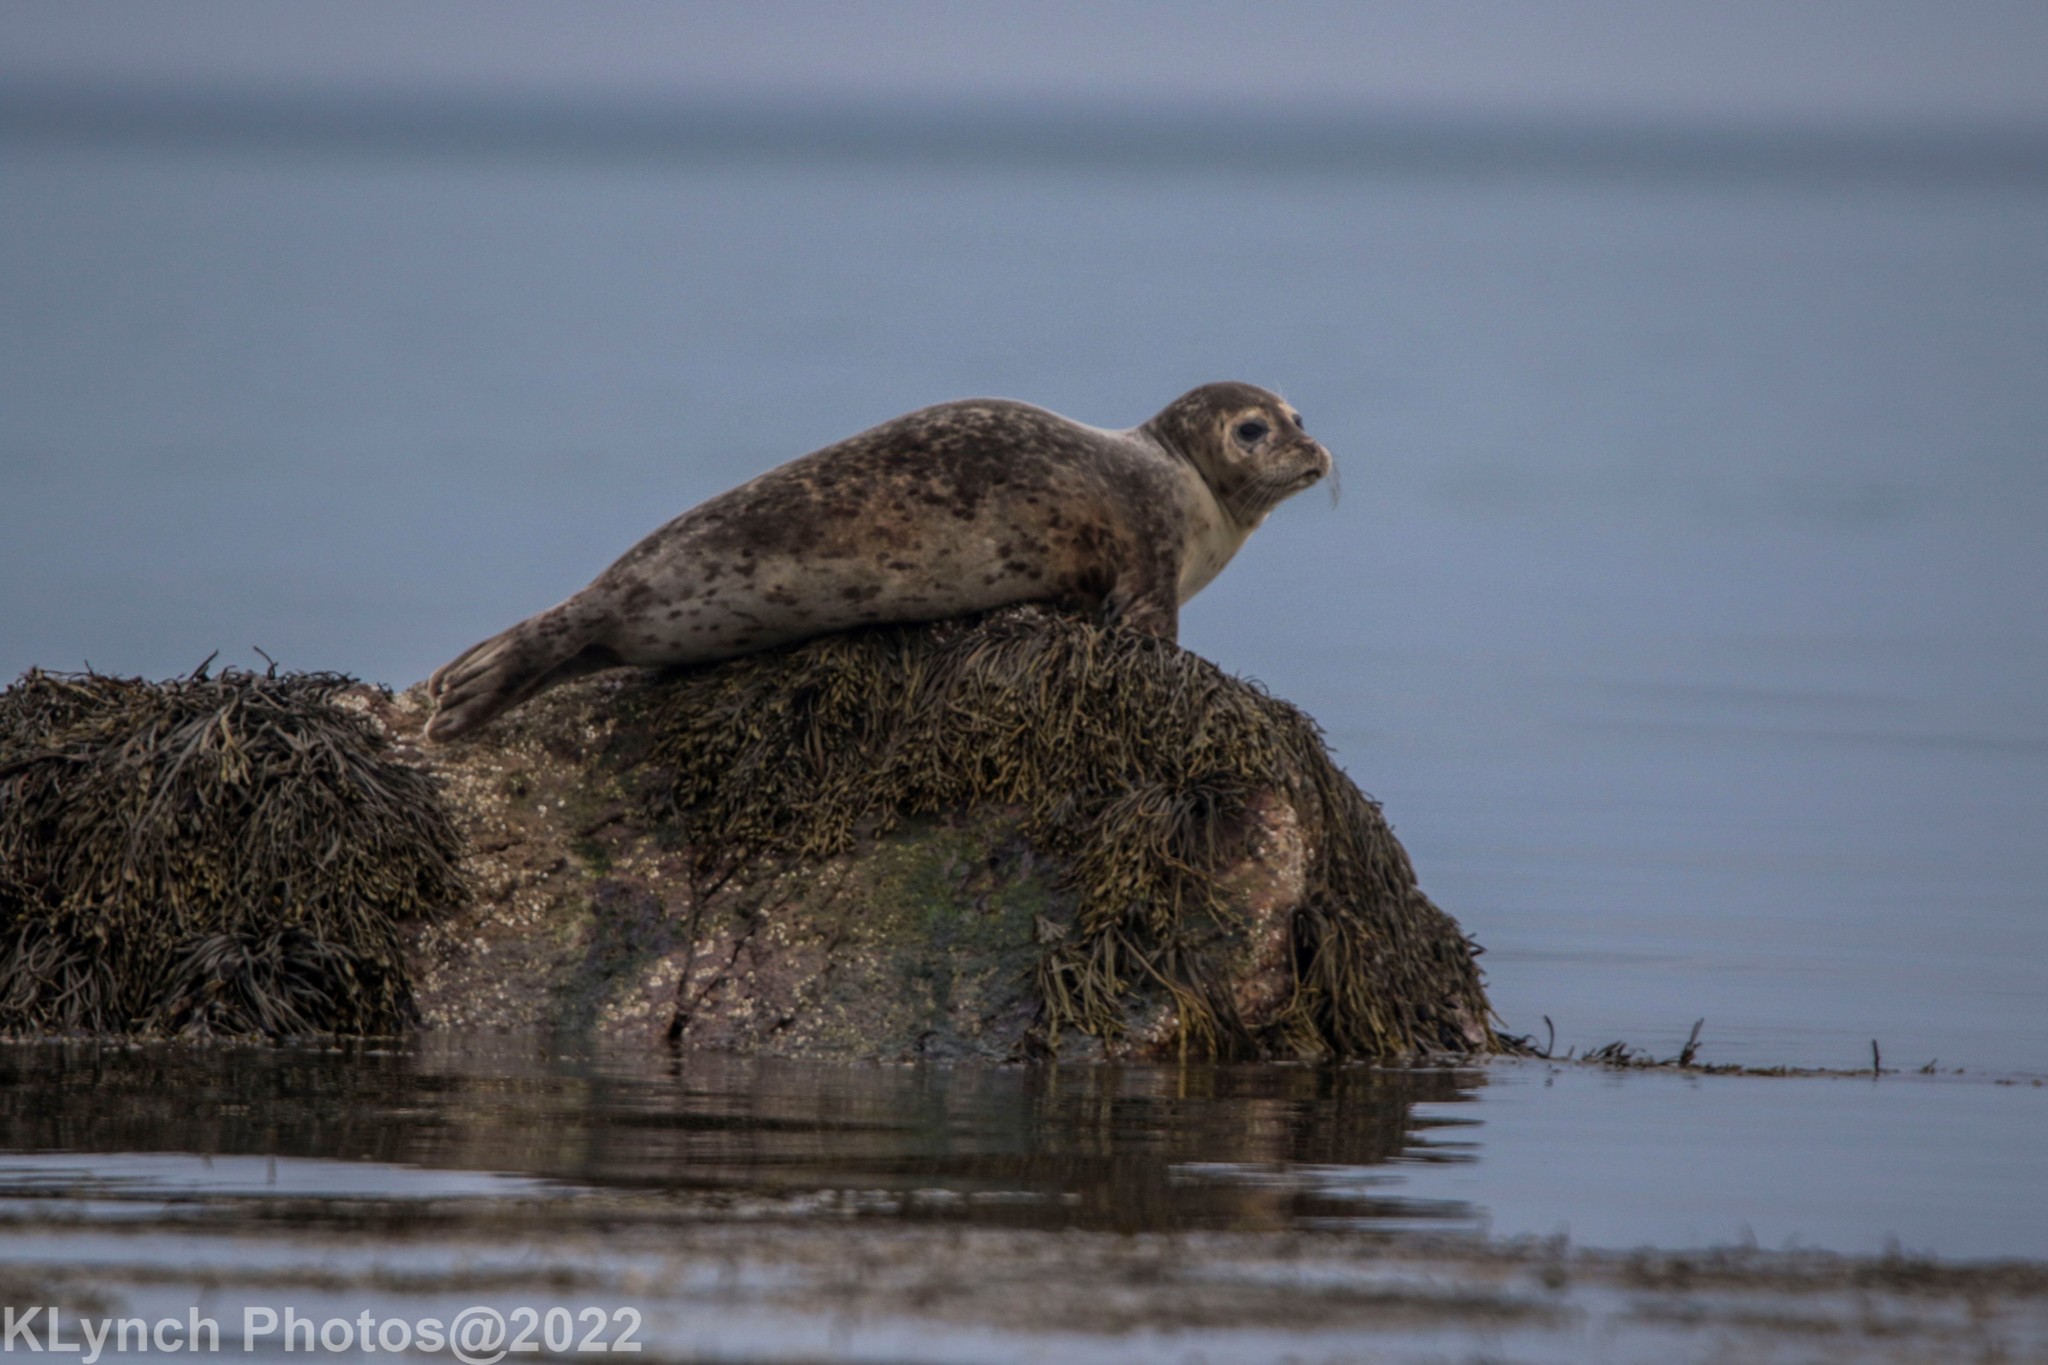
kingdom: Animalia
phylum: Chordata
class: Mammalia
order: Carnivora
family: Phocidae
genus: Phoca
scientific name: Phoca vitulina
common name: Harbor seal
